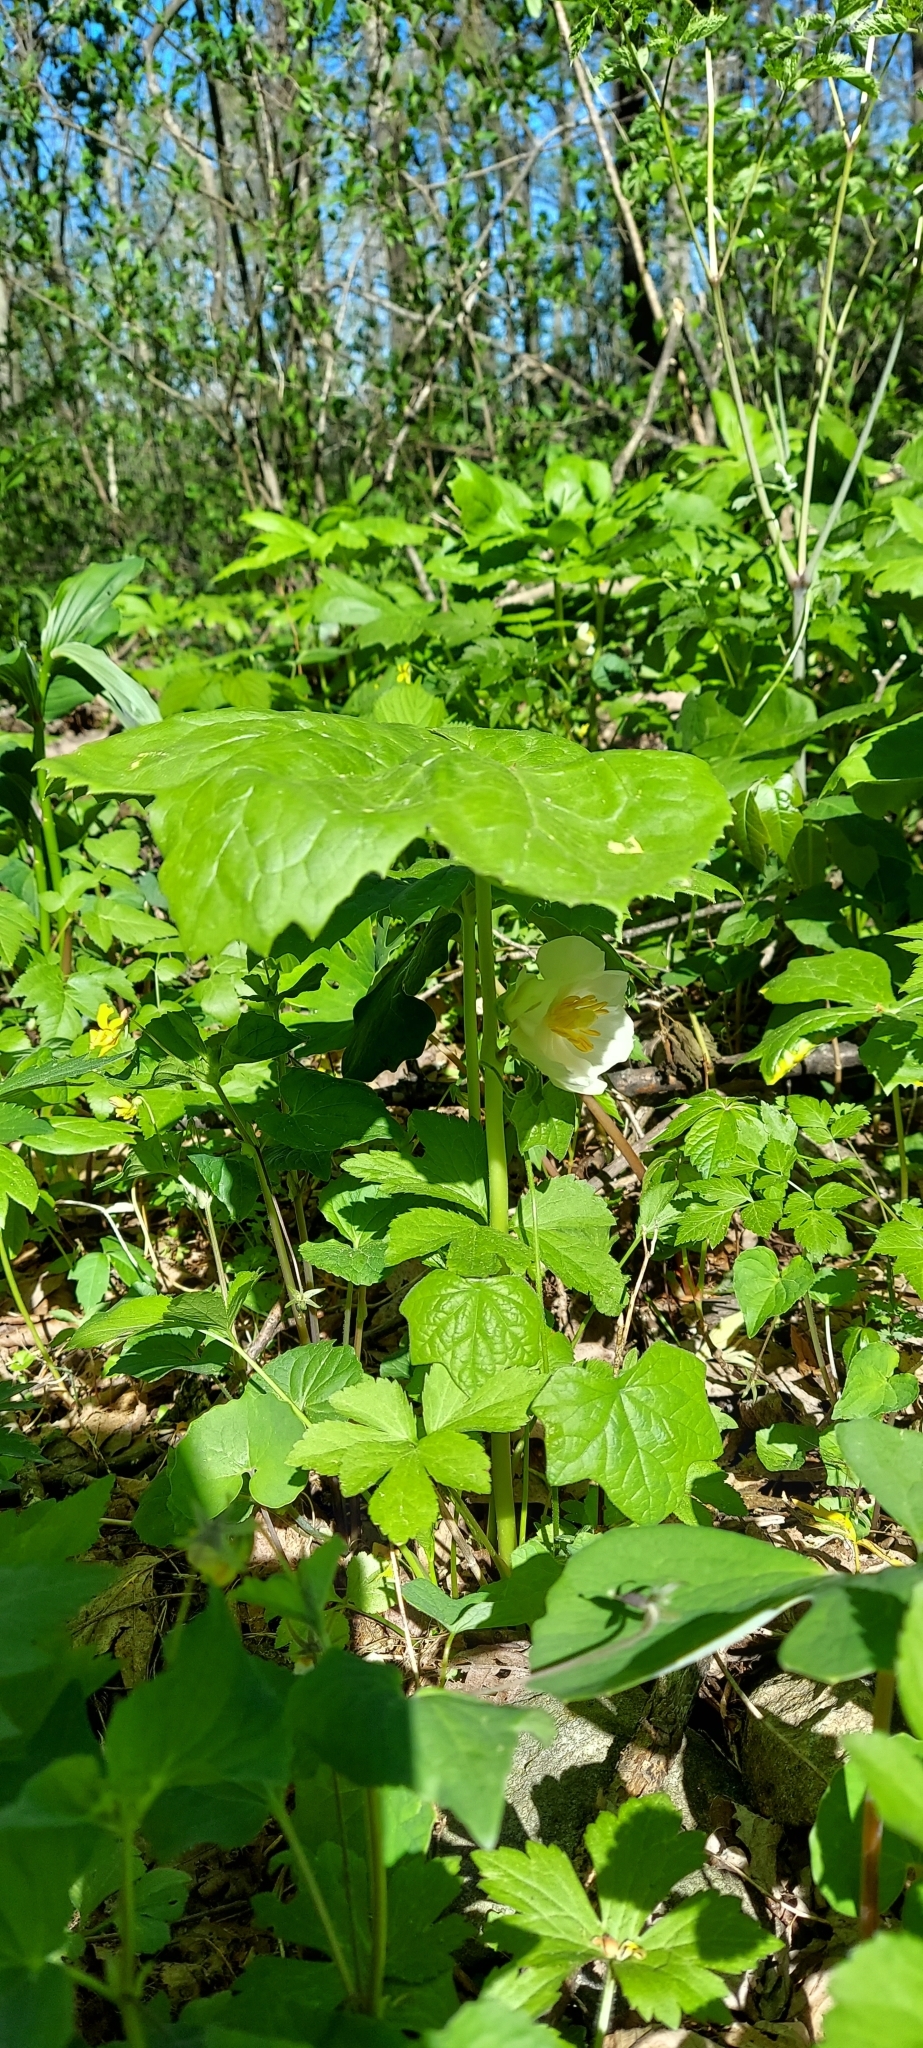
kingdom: Plantae
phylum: Tracheophyta
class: Magnoliopsida
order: Ranunculales
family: Berberidaceae
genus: Podophyllum
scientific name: Podophyllum peltatum
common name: Wild mandrake
